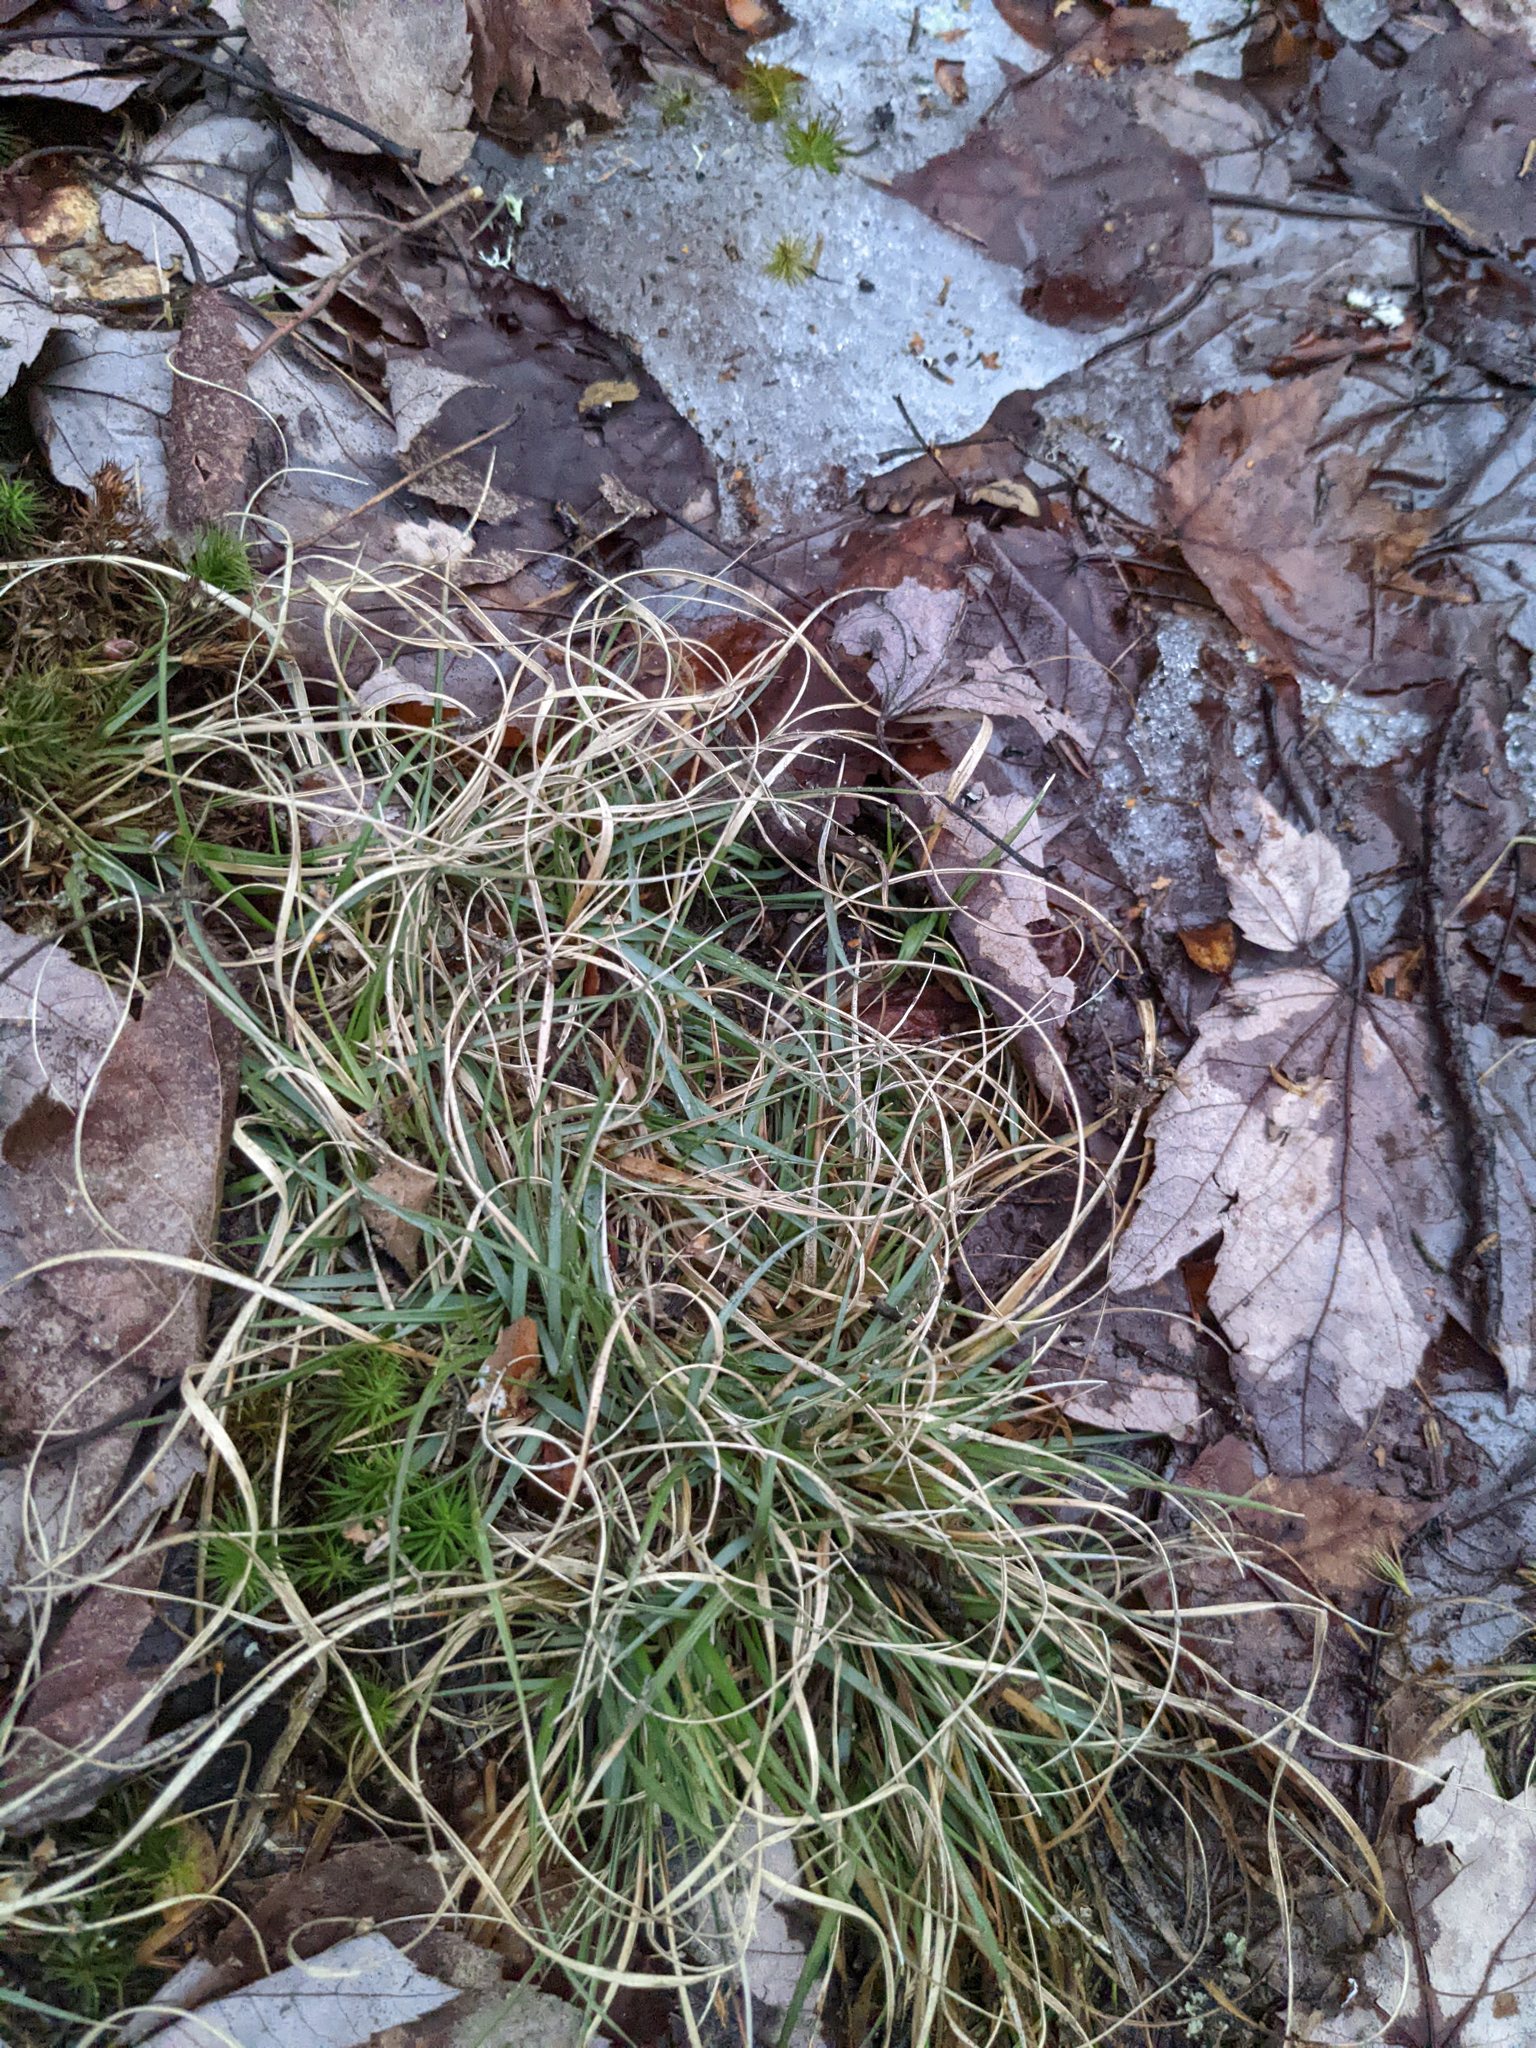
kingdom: Plantae
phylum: Tracheophyta
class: Liliopsida
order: Poales
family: Poaceae
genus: Danthonia
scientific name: Danthonia spicata
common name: Common wild oatgrass
